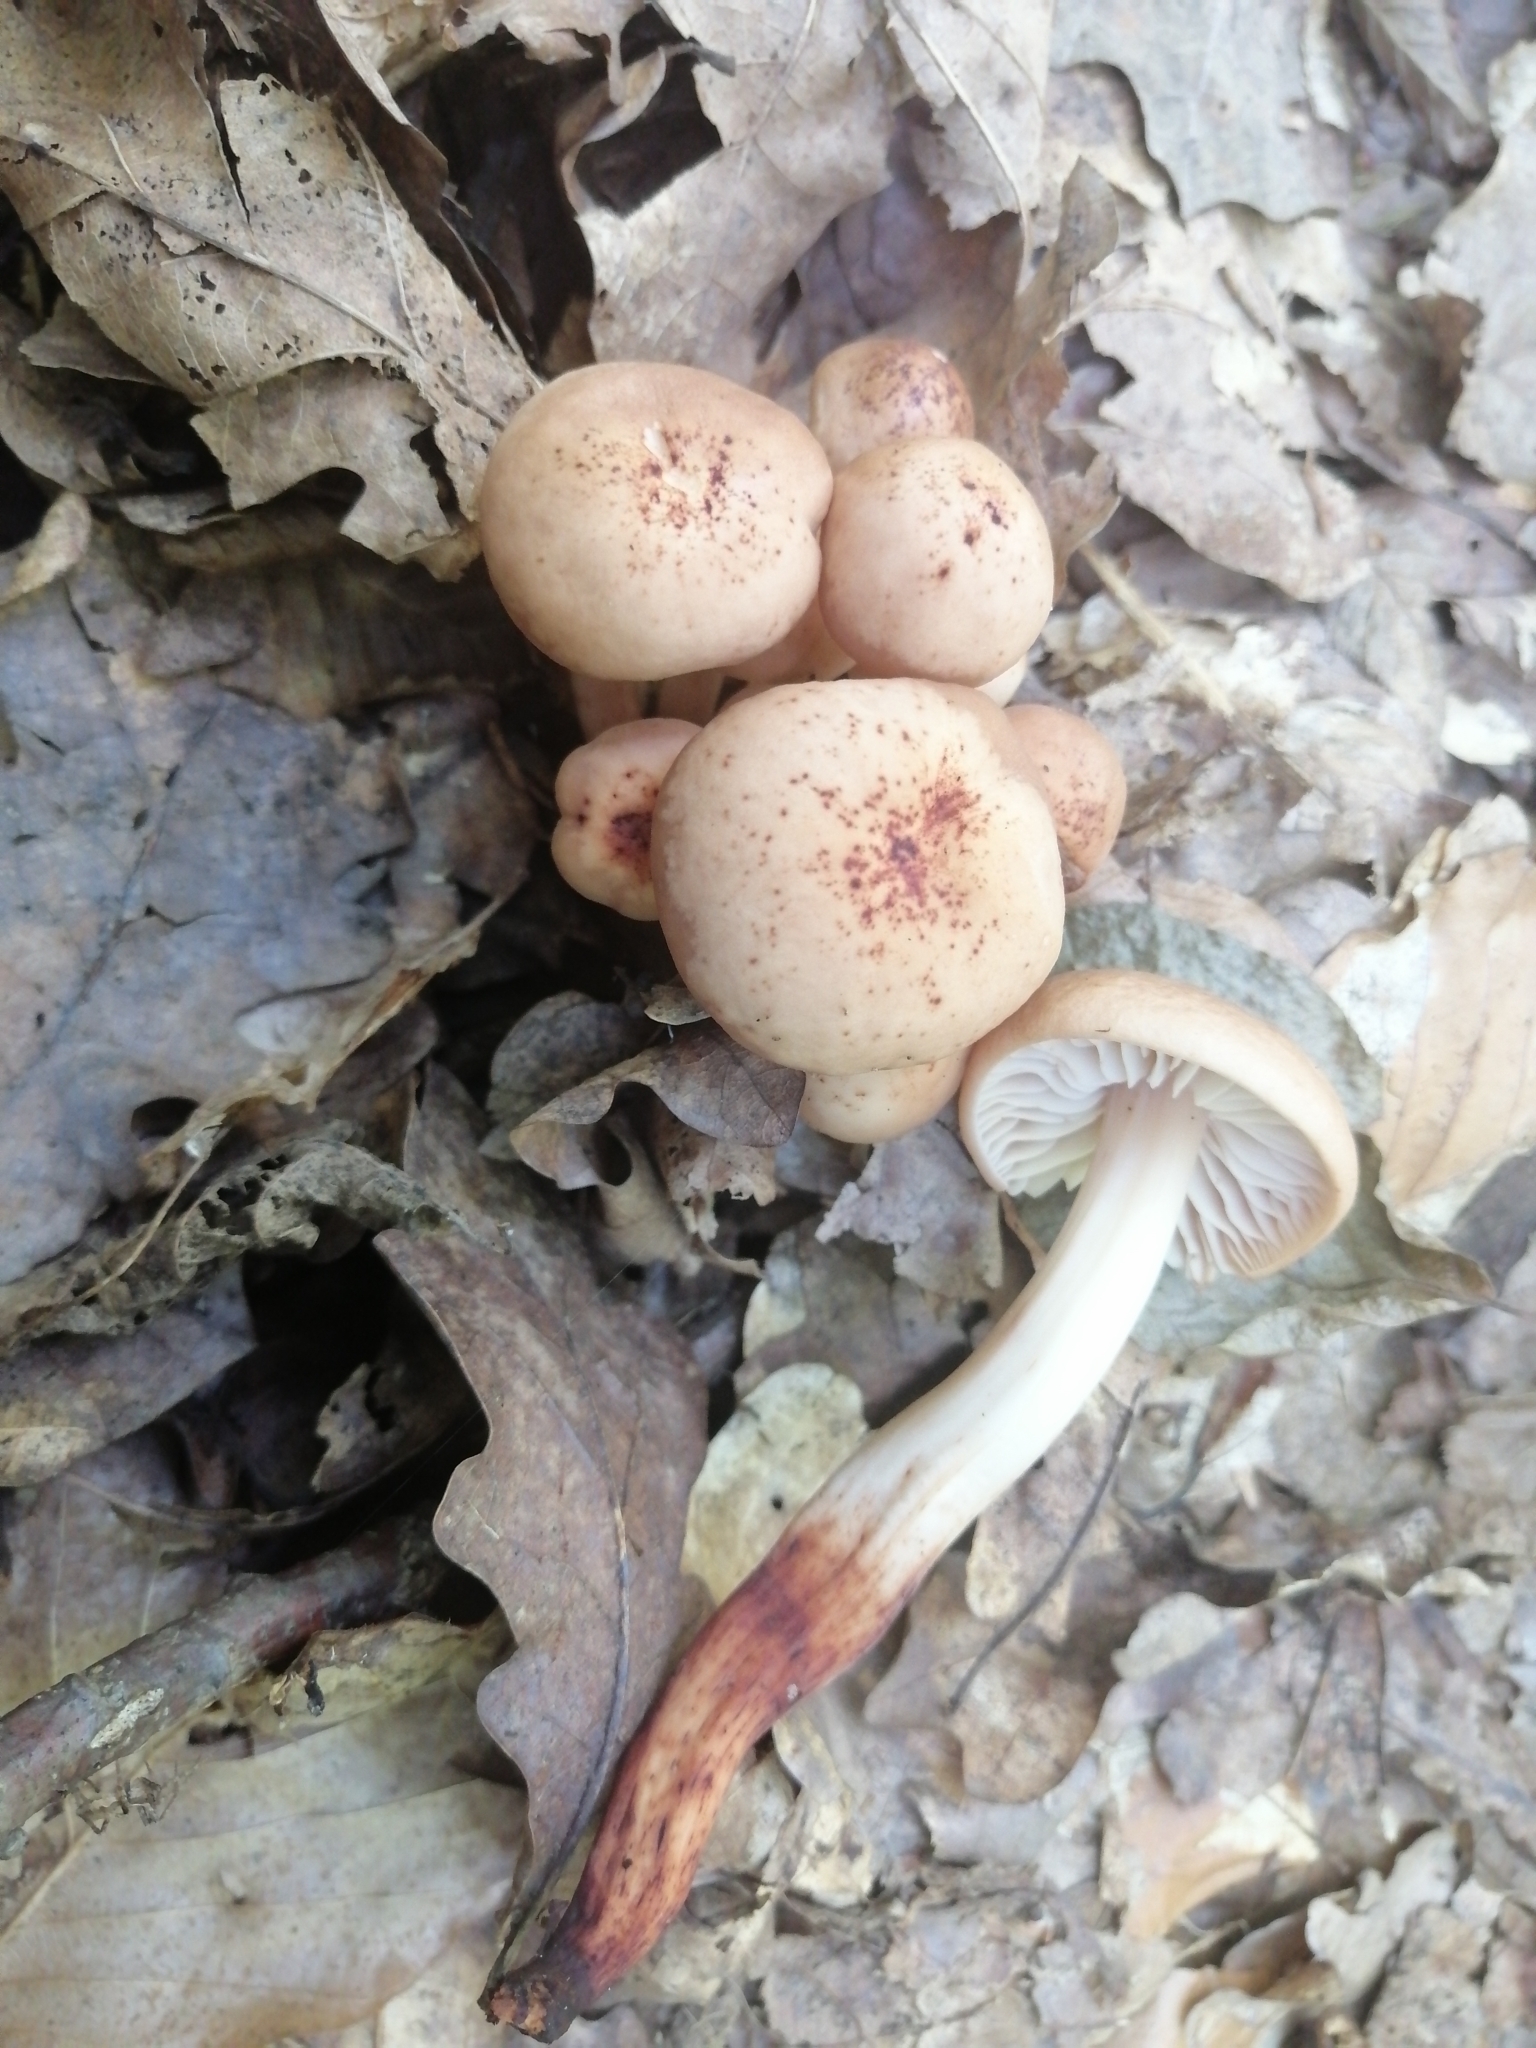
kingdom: Fungi
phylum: Basidiomycota
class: Agaricomycetes
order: Agaricales
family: Omphalotaceae
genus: Gymnopus
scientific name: Gymnopus fusipes
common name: Spindle shank
